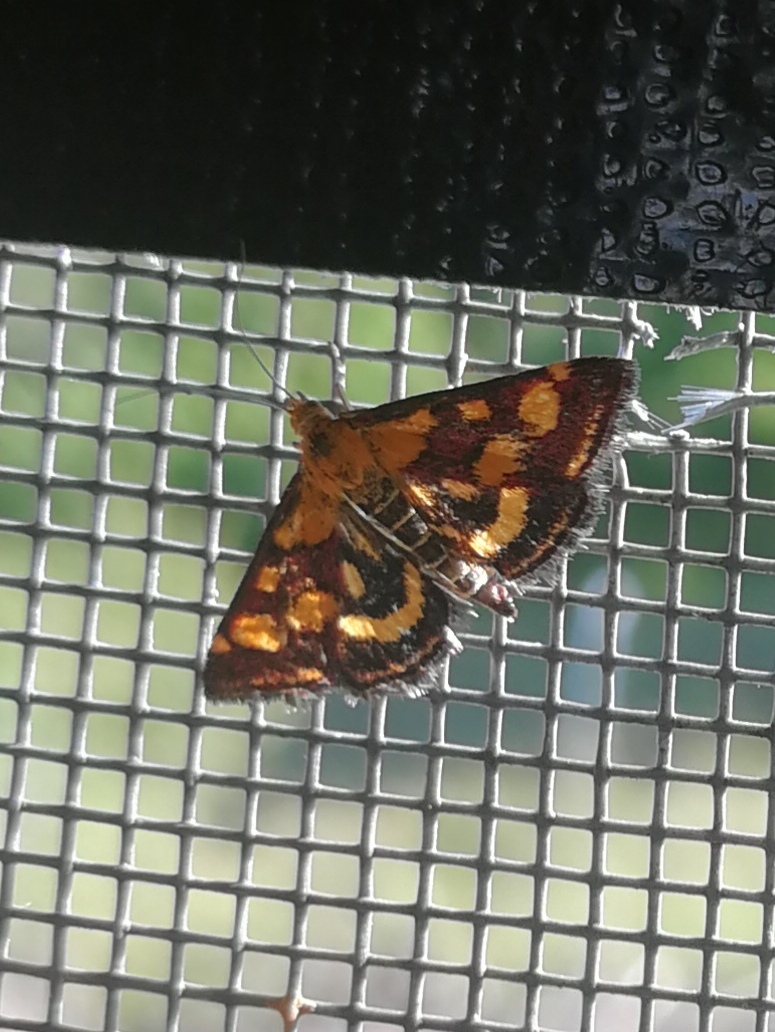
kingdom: Animalia
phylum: Arthropoda
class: Insecta
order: Lepidoptera
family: Crambidae
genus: Pyrausta
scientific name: Pyrausta purpuralis
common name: Common purple & gold
